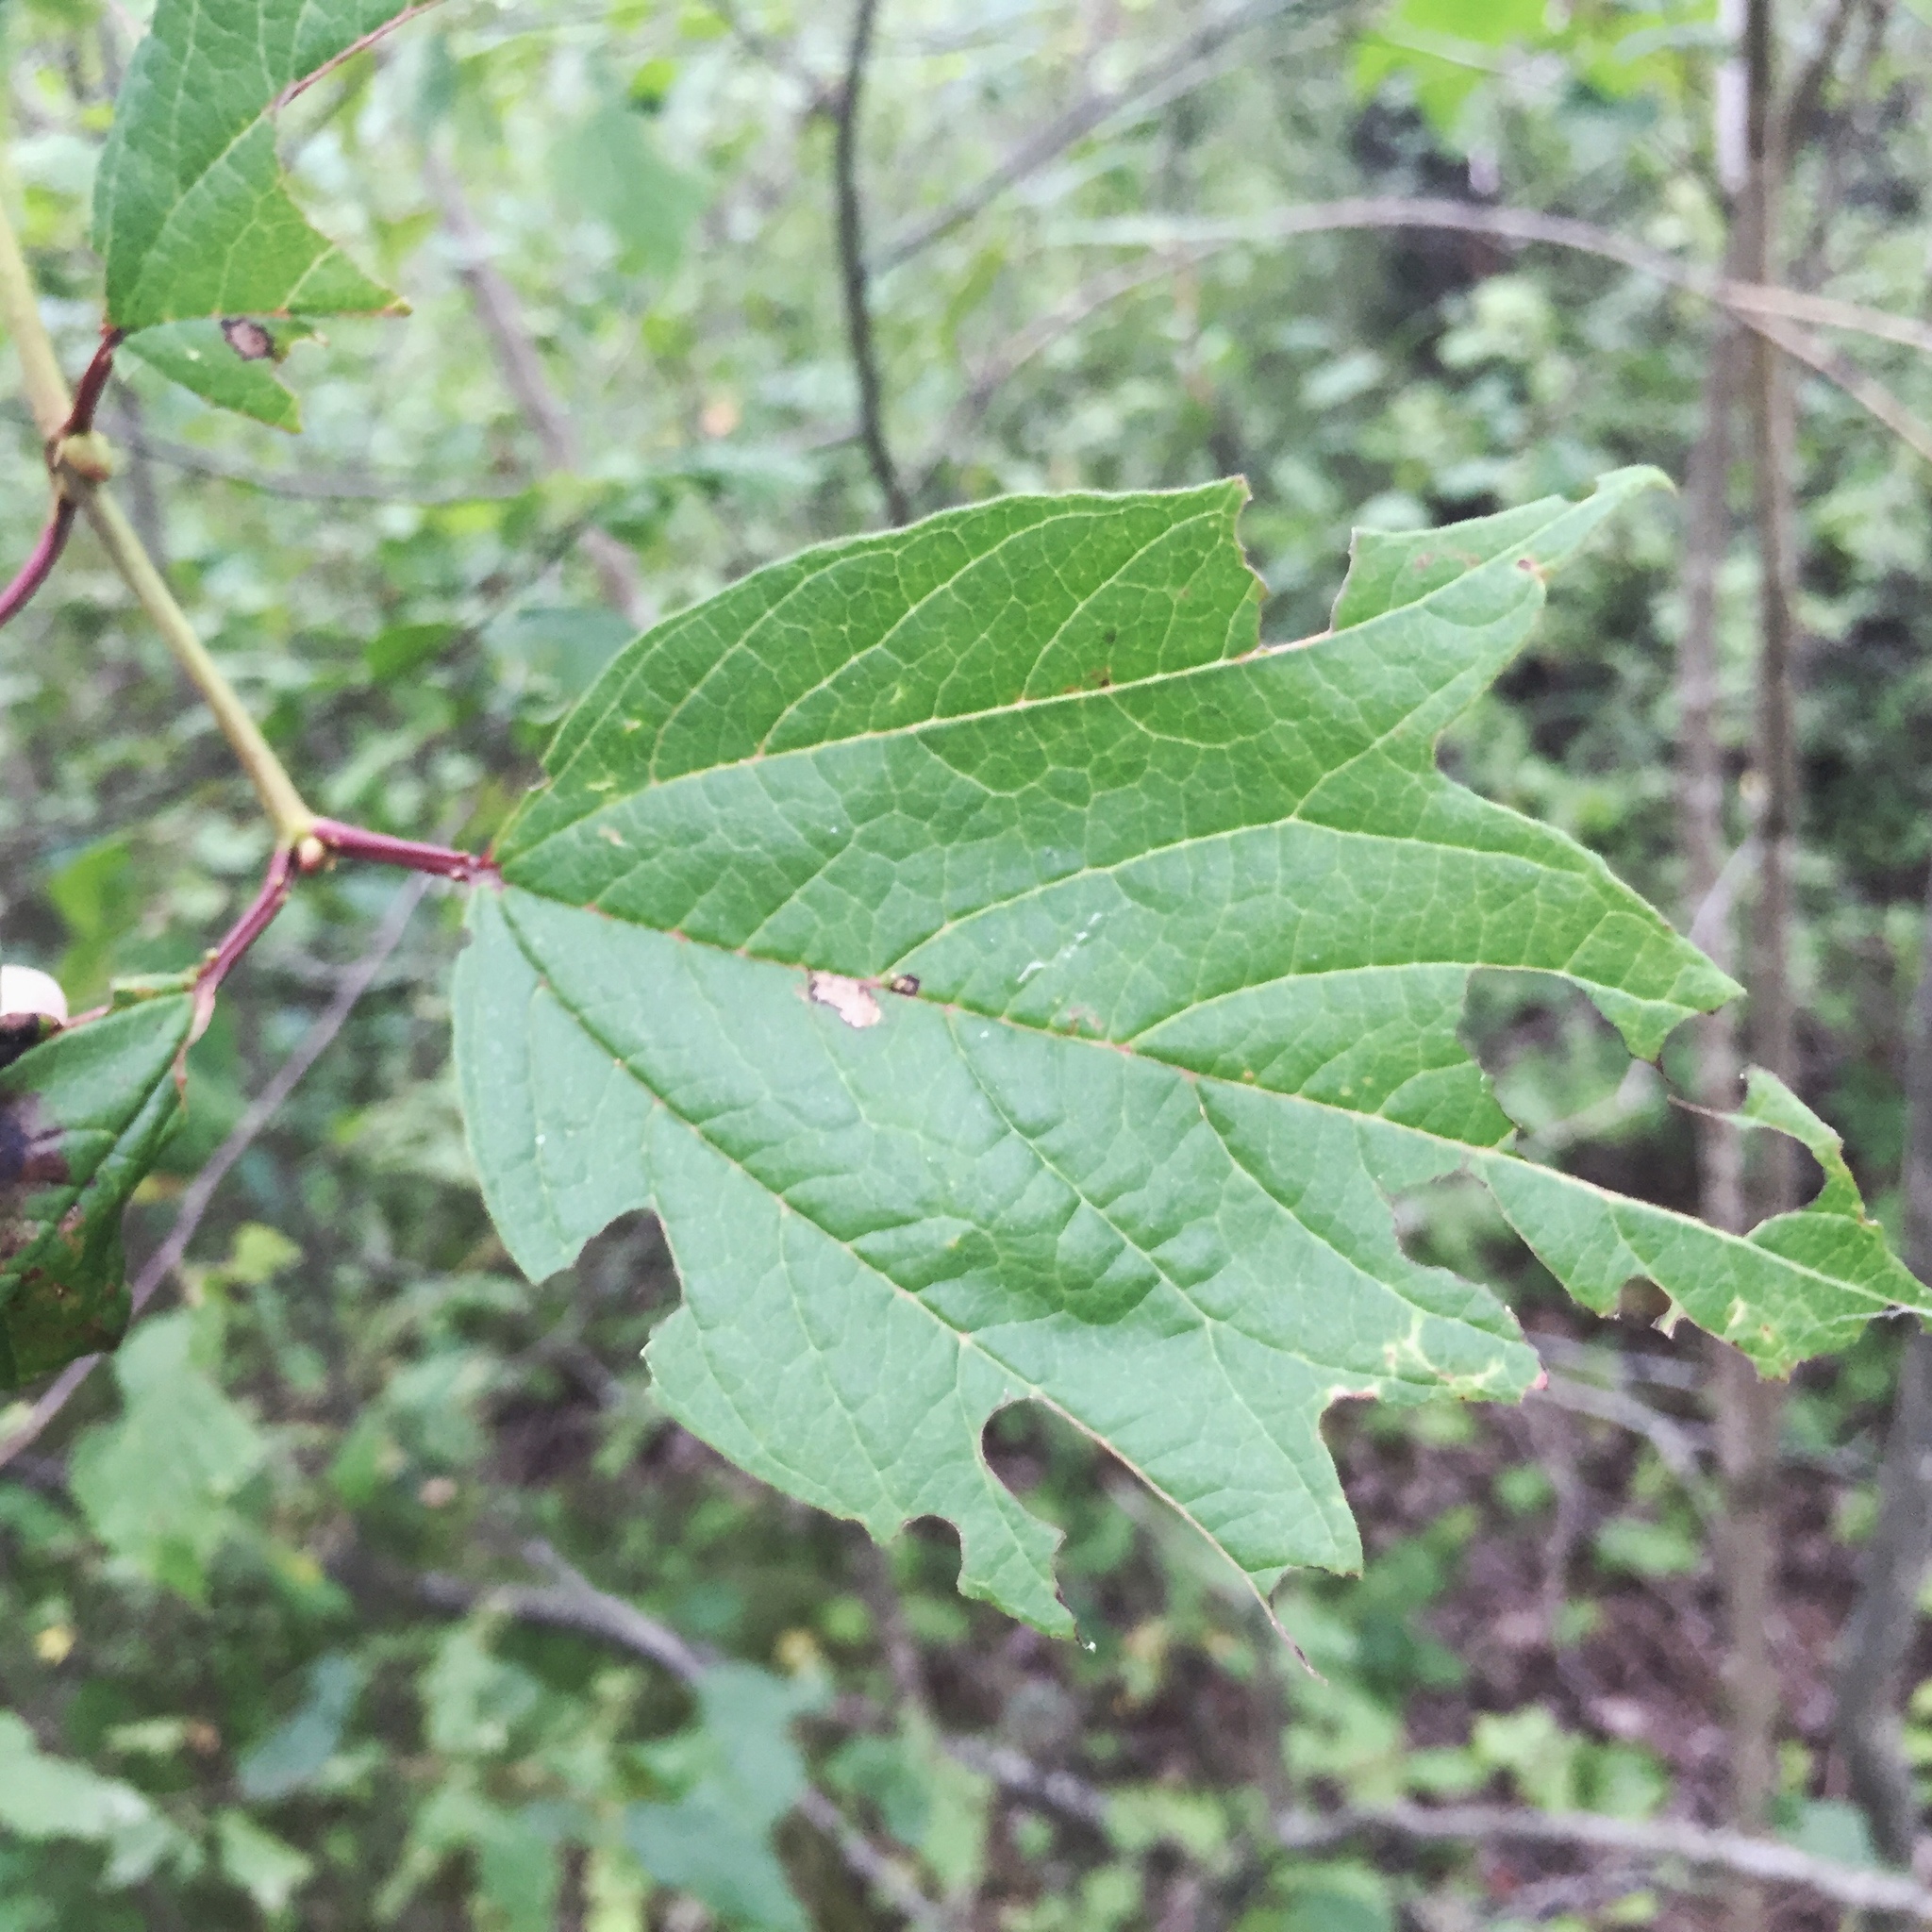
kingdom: Plantae
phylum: Tracheophyta
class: Magnoliopsida
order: Dipsacales
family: Viburnaceae
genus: Viburnum
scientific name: Viburnum trilobum
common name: American cranberrybush
